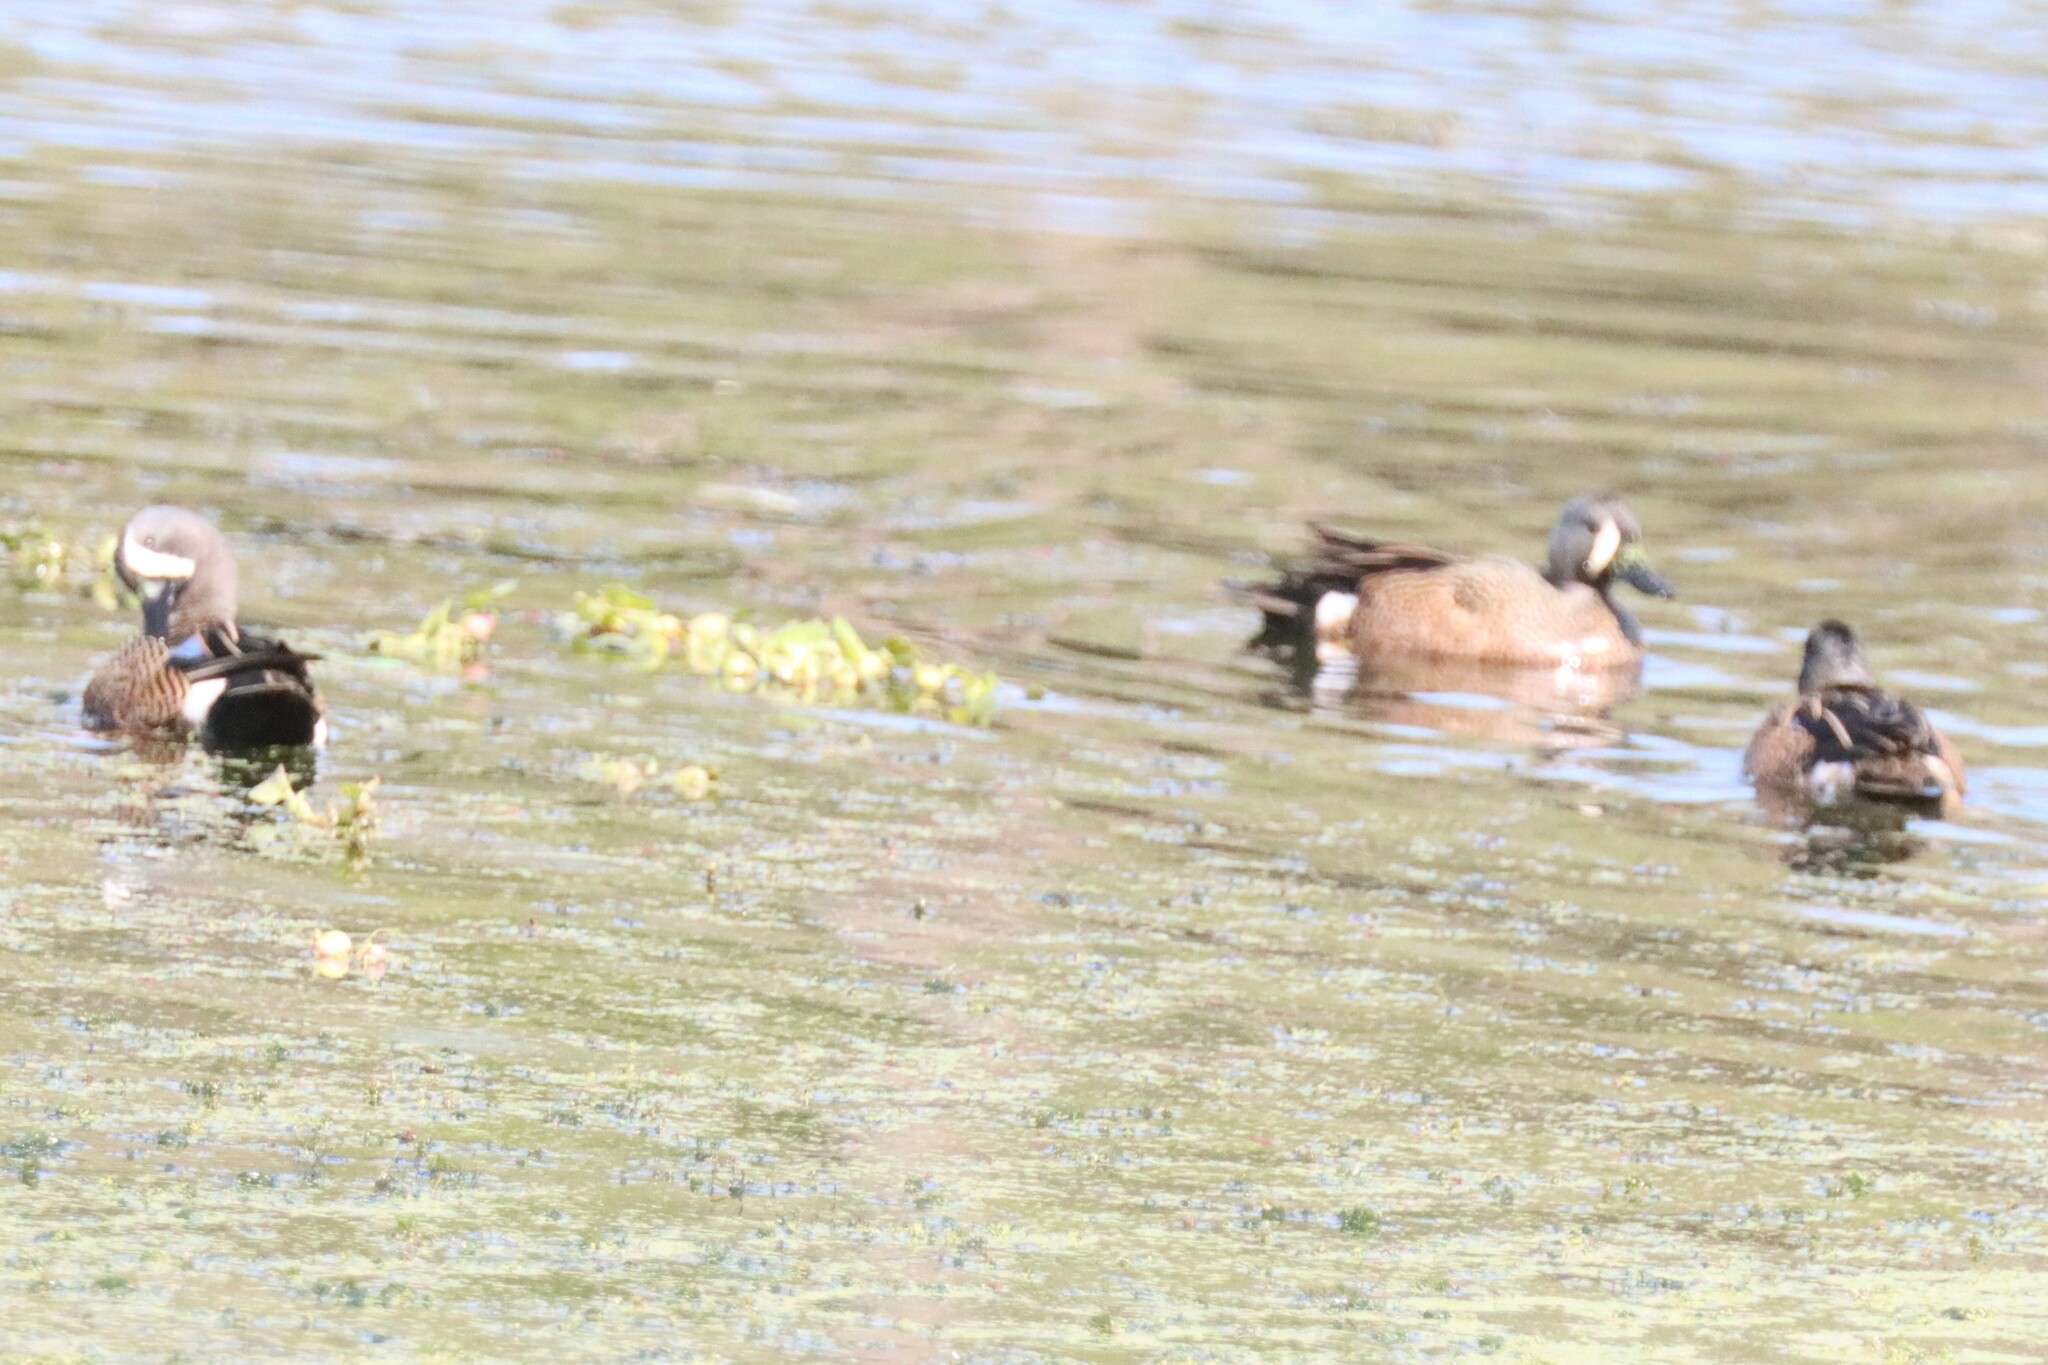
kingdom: Animalia
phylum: Chordata
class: Aves
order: Anseriformes
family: Anatidae
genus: Spatula
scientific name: Spatula discors
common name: Blue-winged teal
